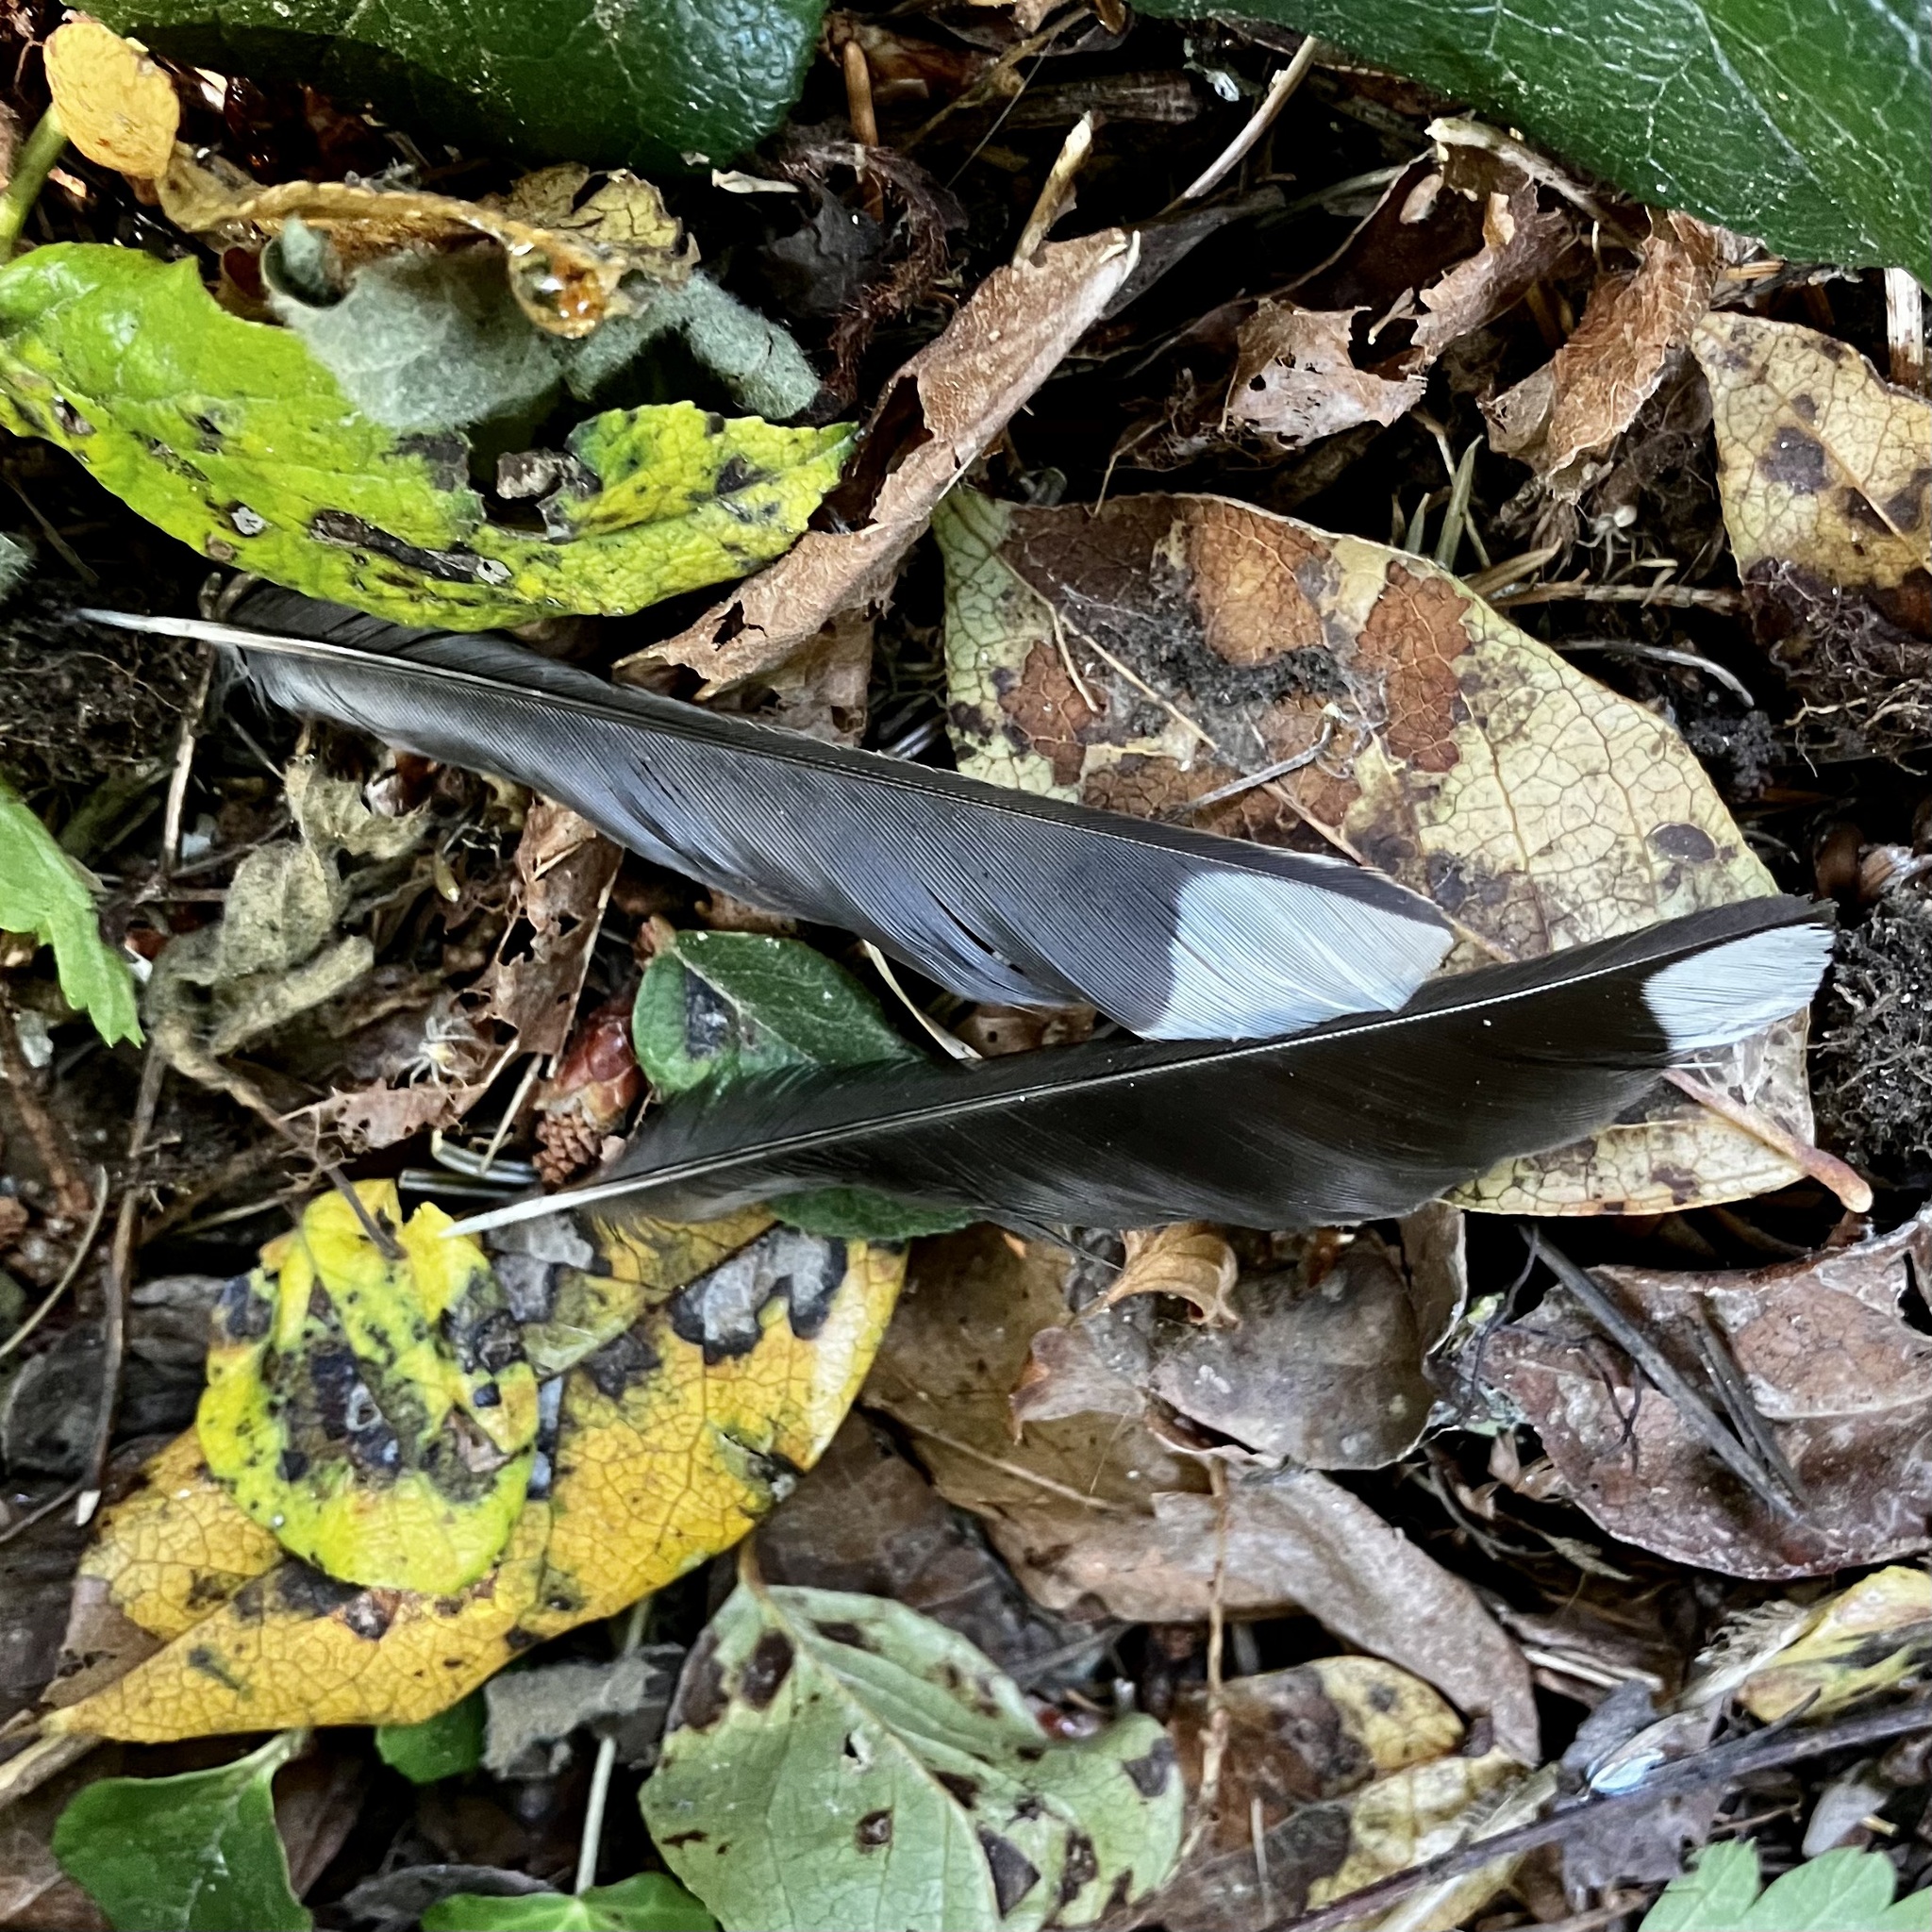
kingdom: Animalia
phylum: Chordata
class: Aves
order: Passeriformes
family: Passerellidae
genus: Pipilo
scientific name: Pipilo maculatus
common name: Spotted towhee
